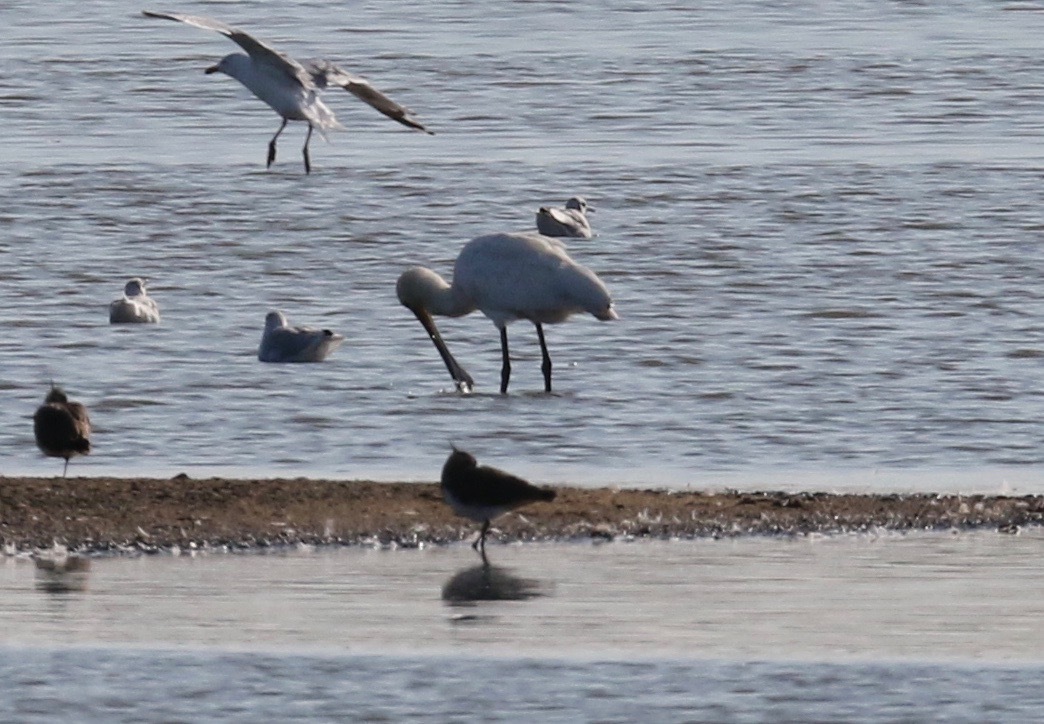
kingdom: Animalia
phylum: Chordata
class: Aves
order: Pelecaniformes
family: Threskiornithidae
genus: Platalea
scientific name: Platalea leucorodia
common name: Eurasian spoonbill
